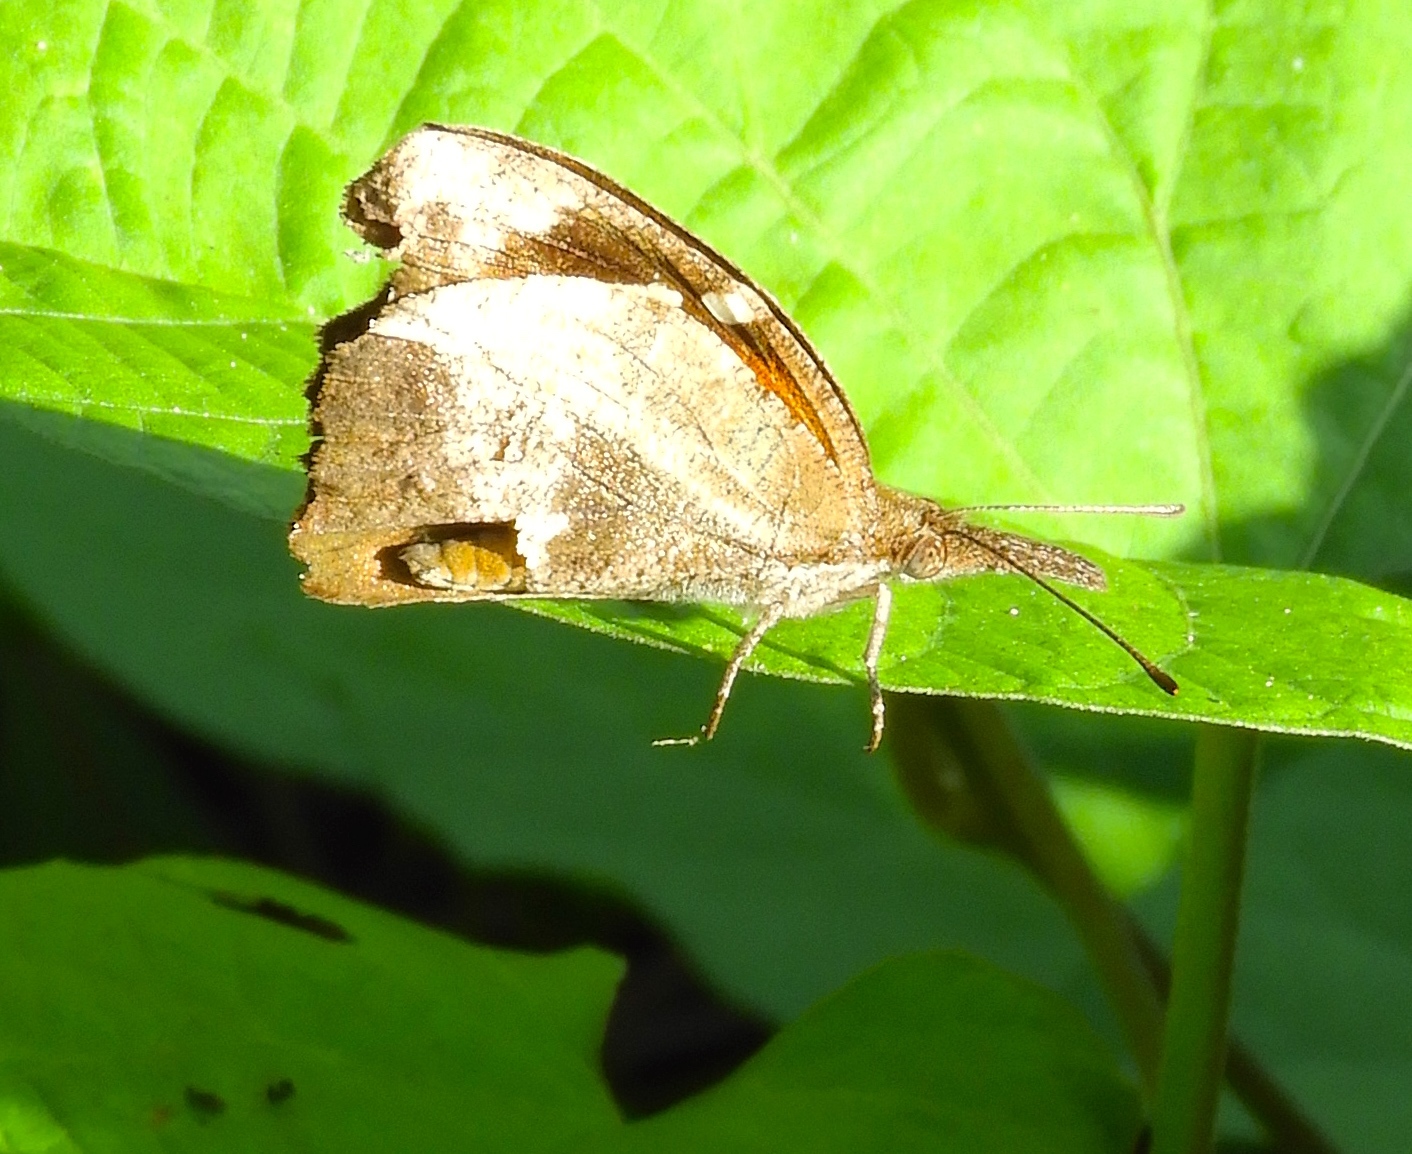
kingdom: Animalia
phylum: Arthropoda
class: Insecta
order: Lepidoptera
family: Nymphalidae
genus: Libytheana
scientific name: Libytheana carinenta
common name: American snout
